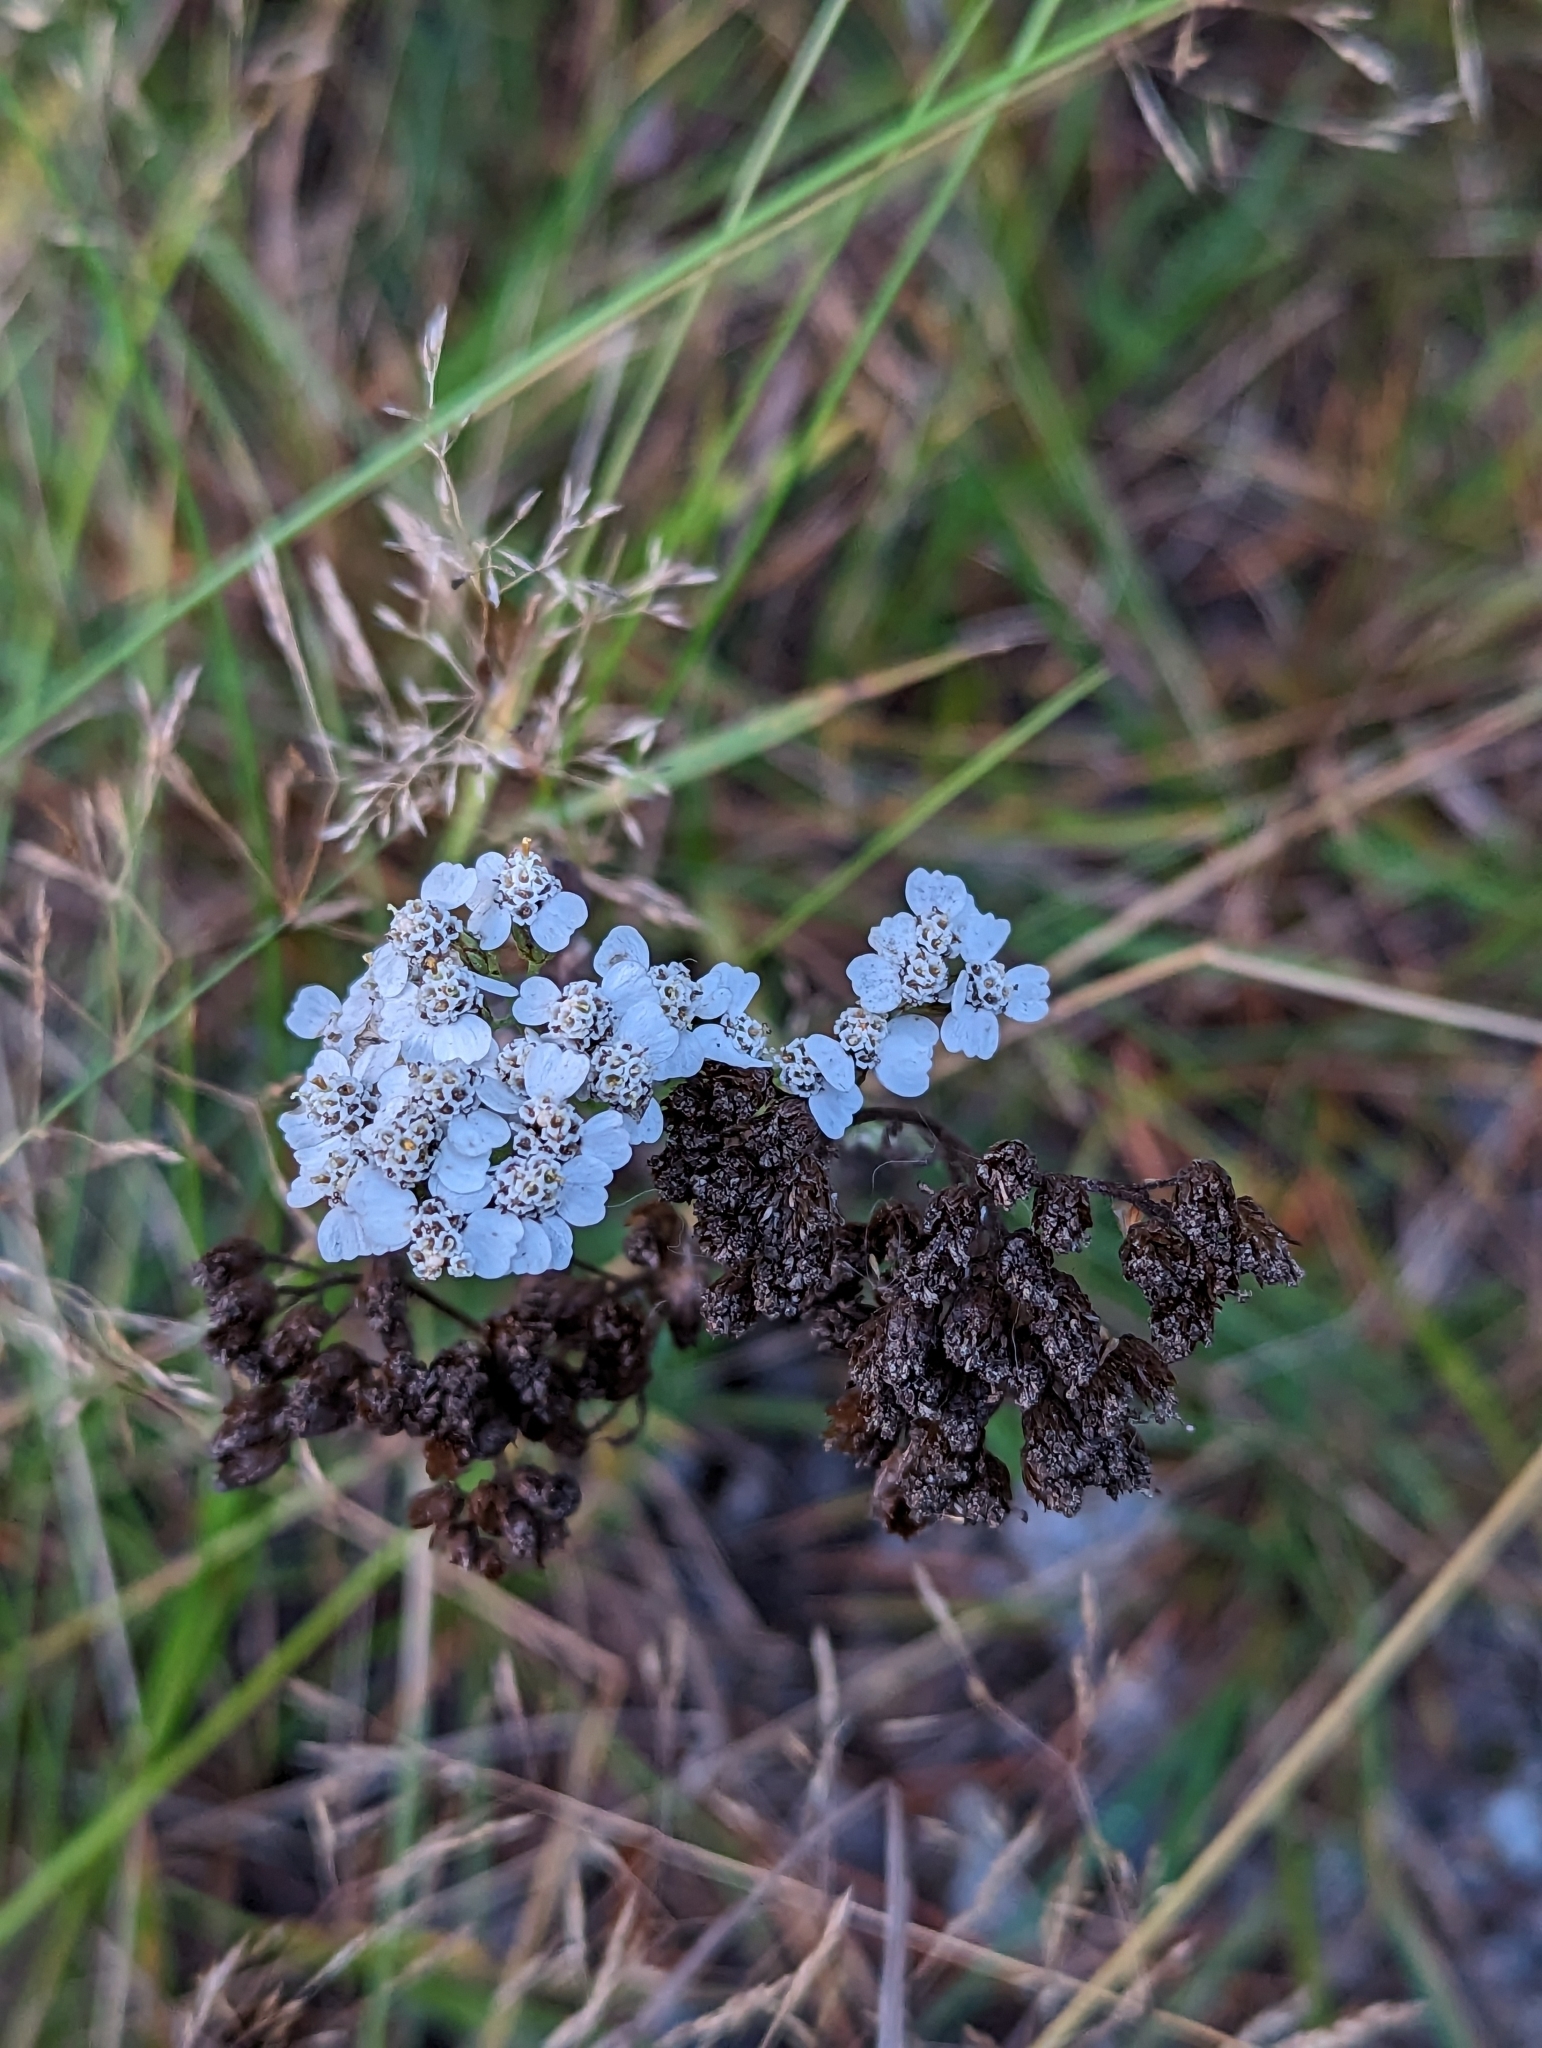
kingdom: Plantae
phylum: Tracheophyta
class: Magnoliopsida
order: Asterales
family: Asteraceae
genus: Achillea
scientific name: Achillea millefolium
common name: Yarrow
